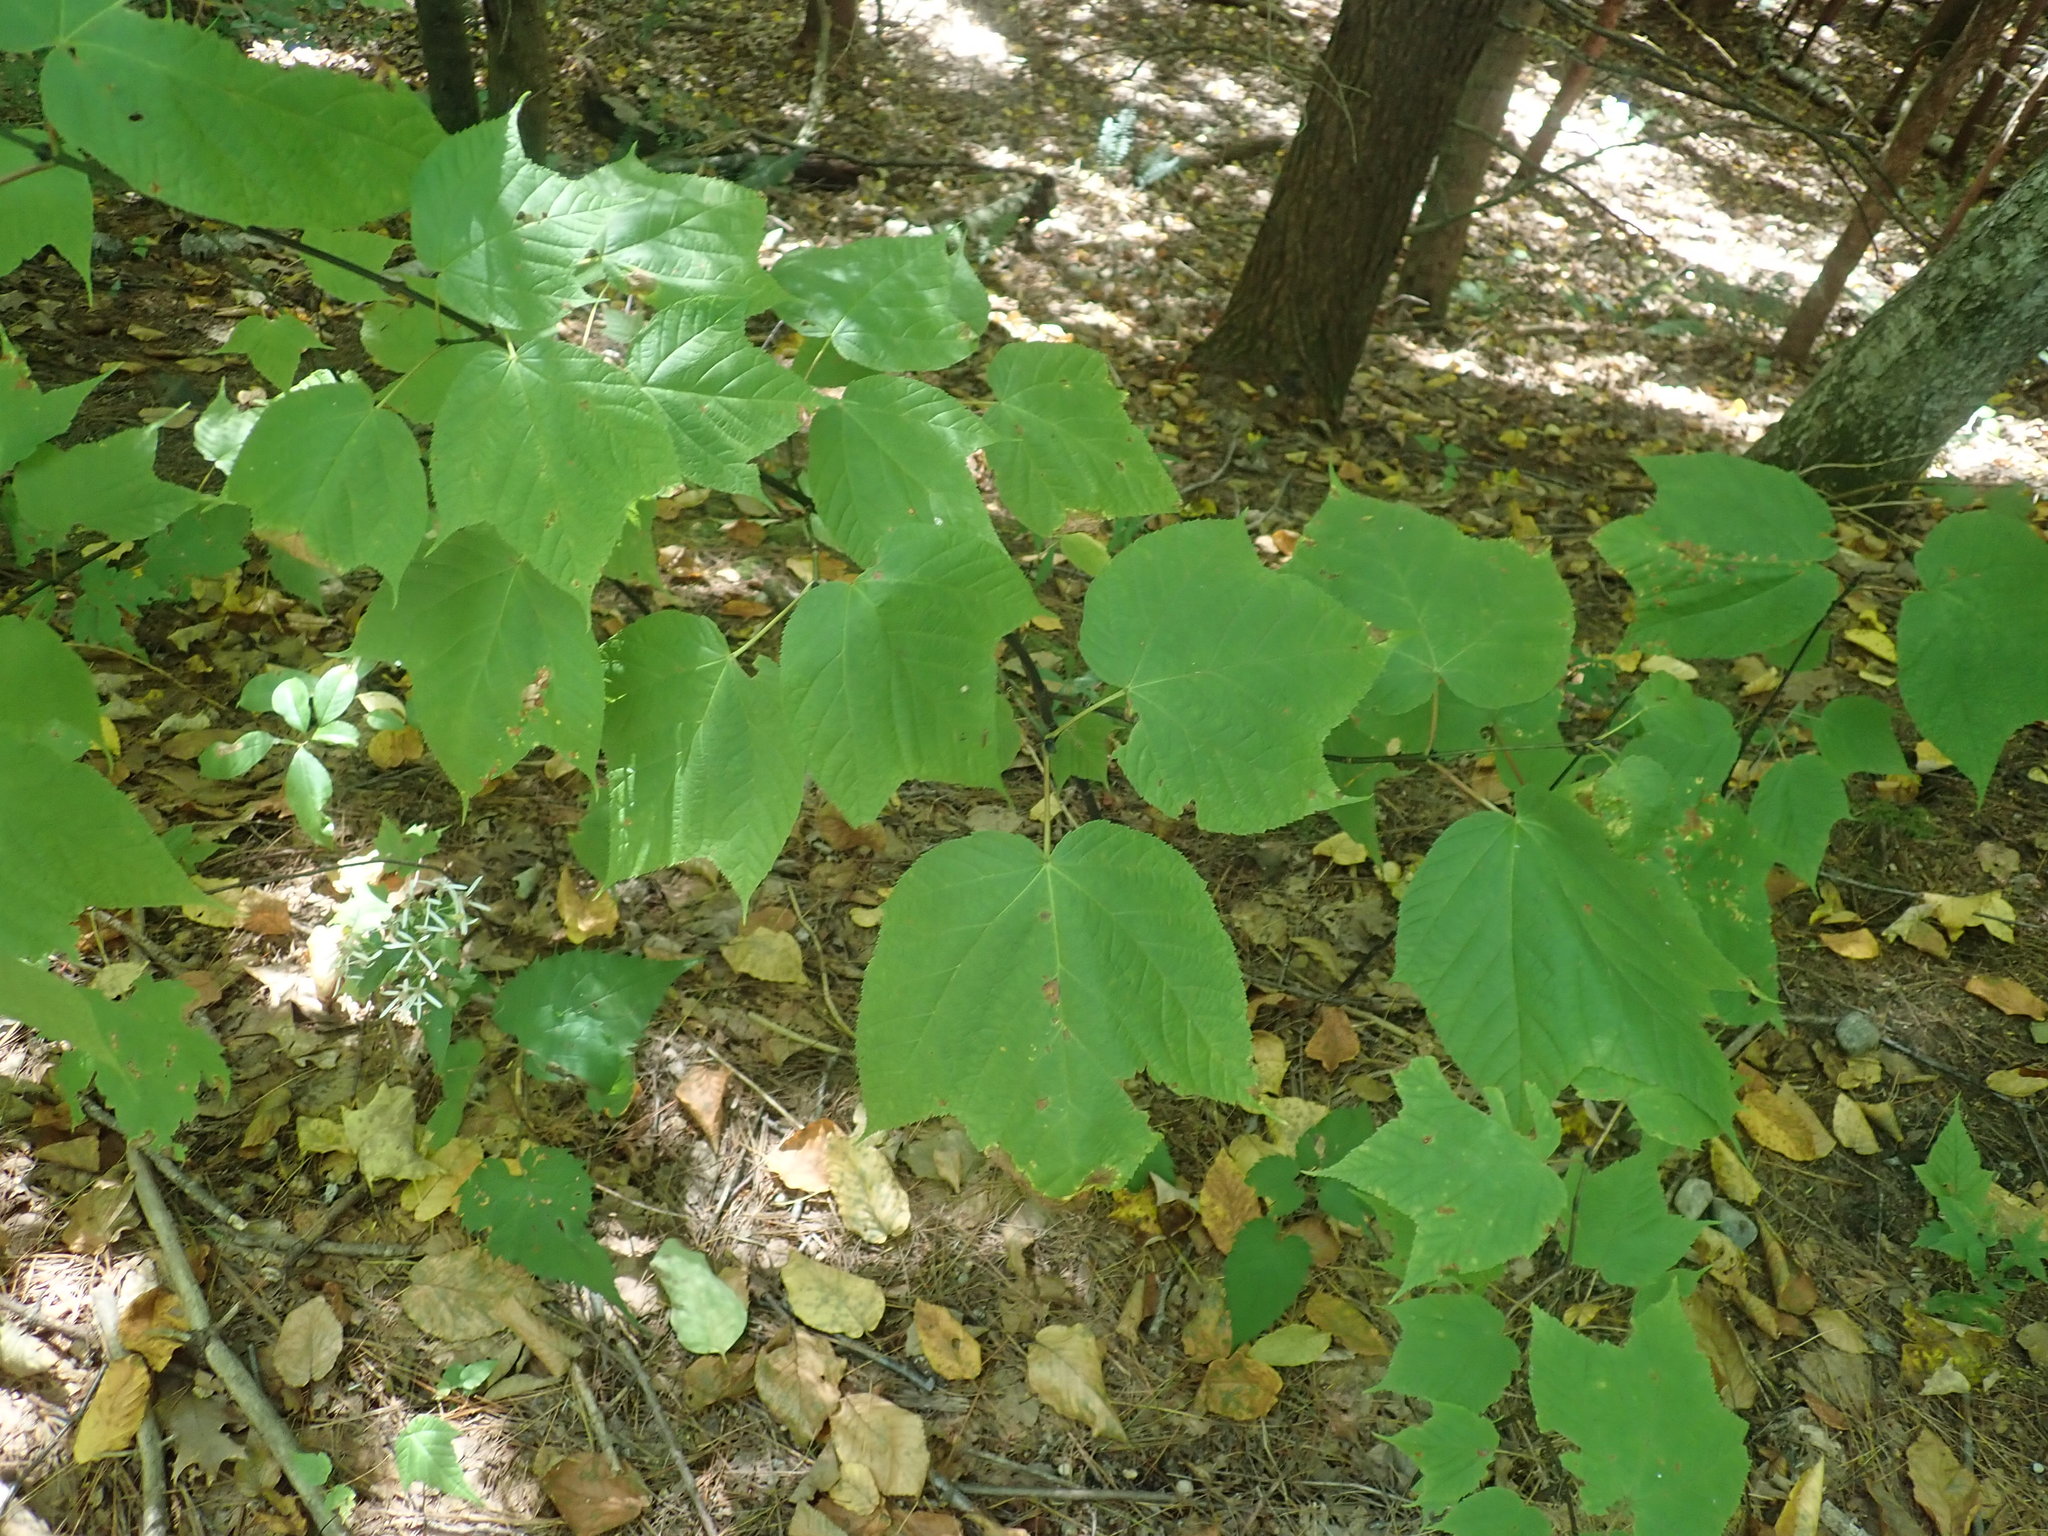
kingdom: Plantae
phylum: Tracheophyta
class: Magnoliopsida
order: Sapindales
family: Sapindaceae
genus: Acer
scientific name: Acer pensylvanicum
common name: Moosewood
